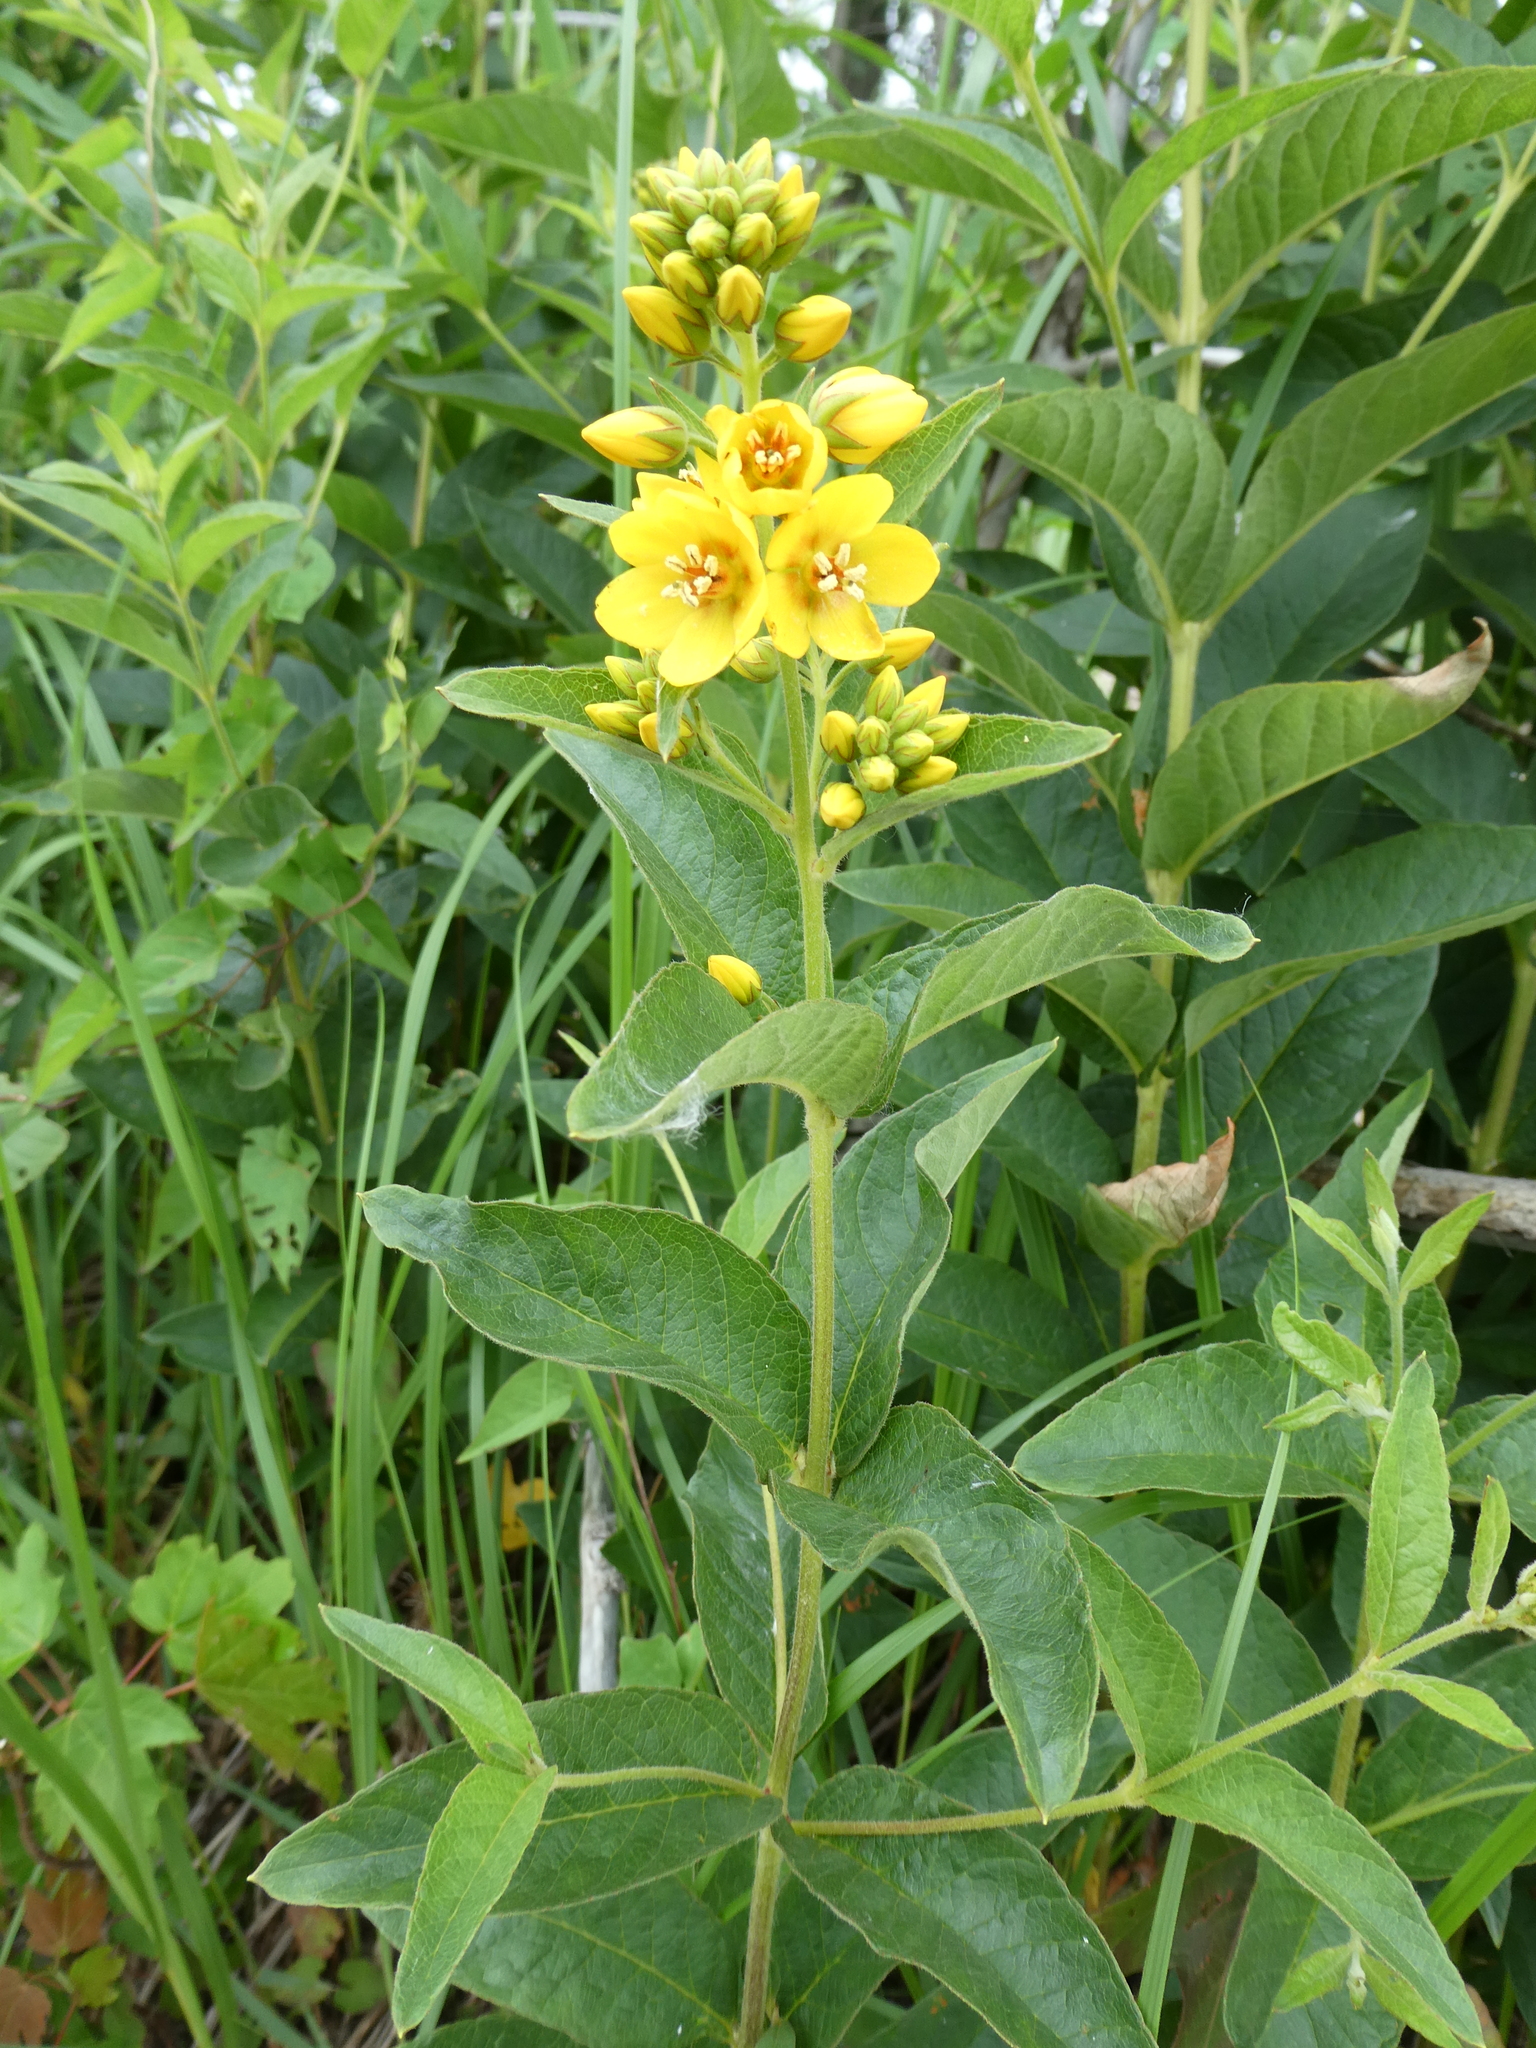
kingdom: Plantae
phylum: Tracheophyta
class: Magnoliopsida
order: Ericales
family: Primulaceae
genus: Lysimachia
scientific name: Lysimachia vulgaris
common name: Yellow loosestrife
